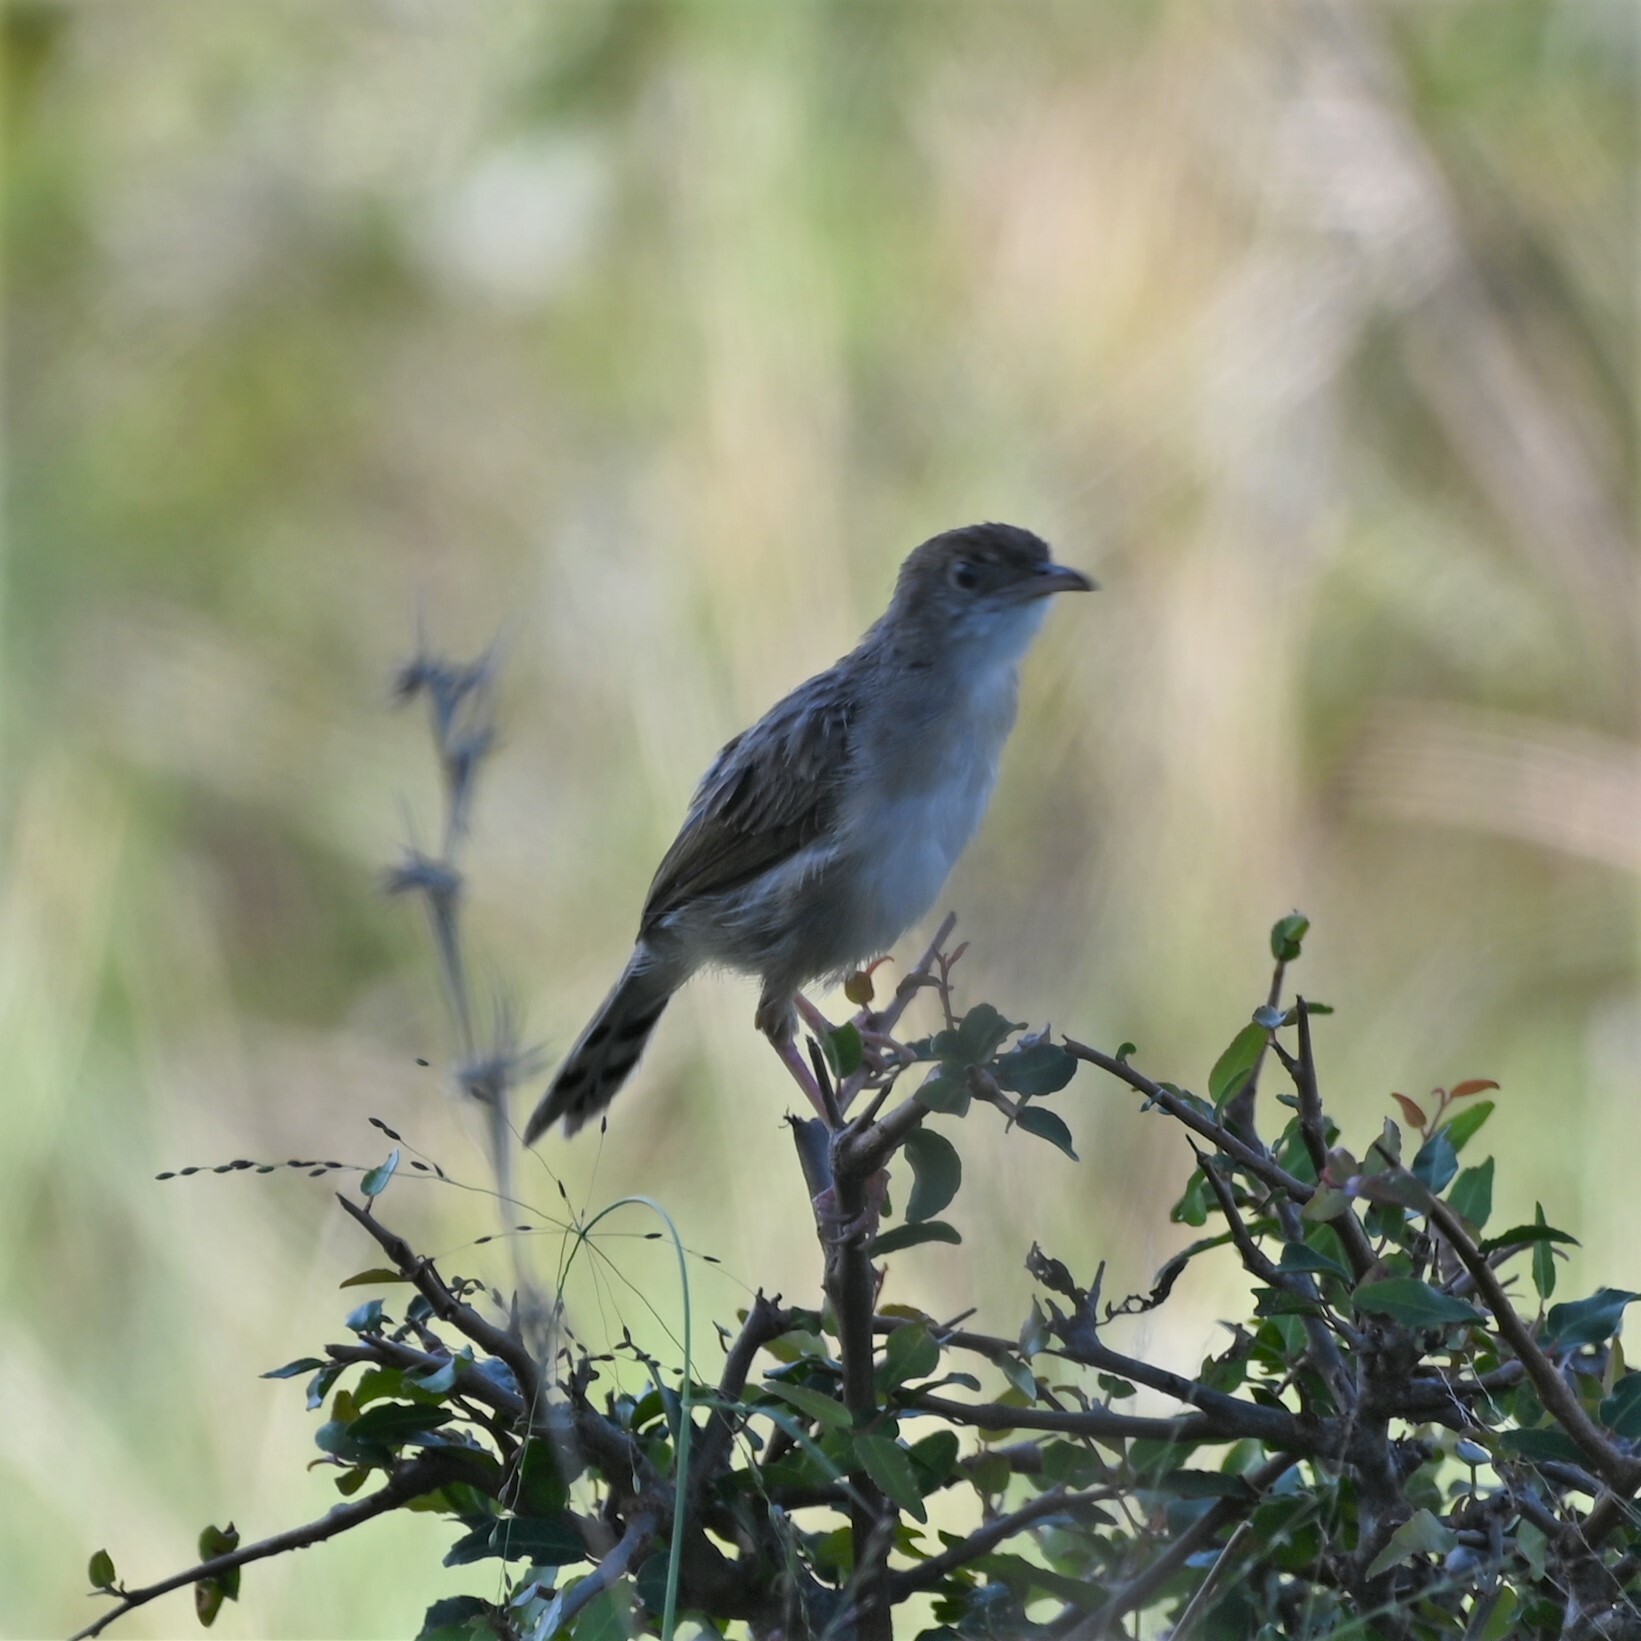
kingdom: Animalia
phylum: Chordata
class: Aves
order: Passeriformes
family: Cisticolidae
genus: Cisticola
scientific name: Cisticola chiniana
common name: Rattling cisticola
